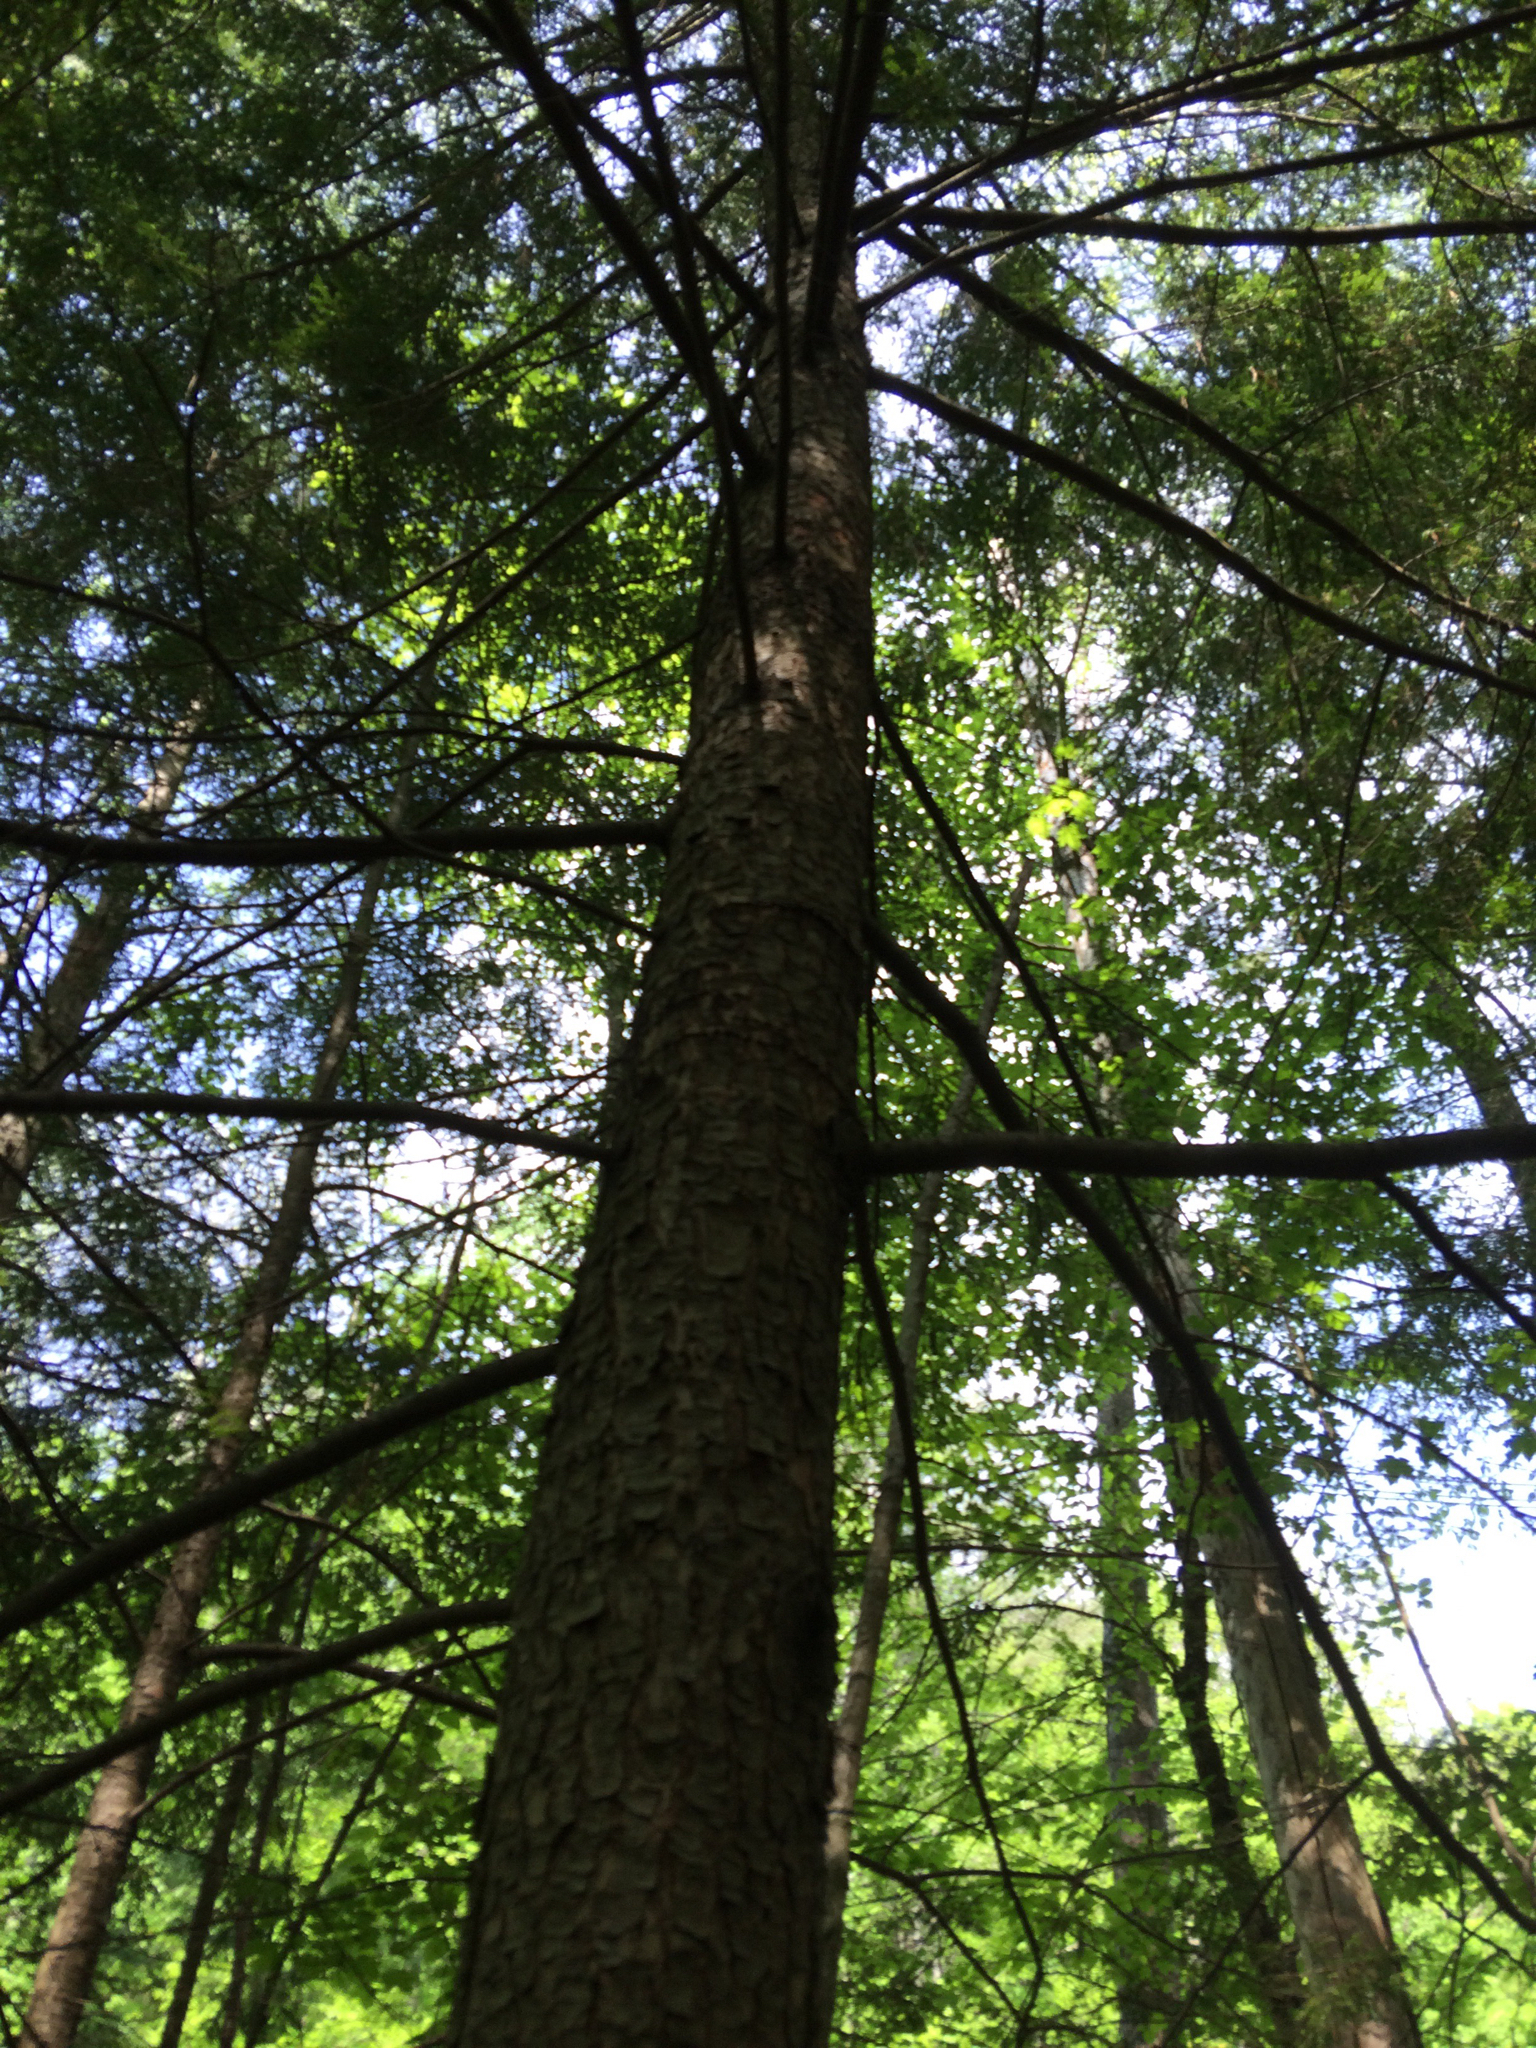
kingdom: Plantae
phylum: Tracheophyta
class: Pinopsida
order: Pinales
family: Pinaceae
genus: Tsuga
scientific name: Tsuga canadensis
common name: Eastern hemlock
